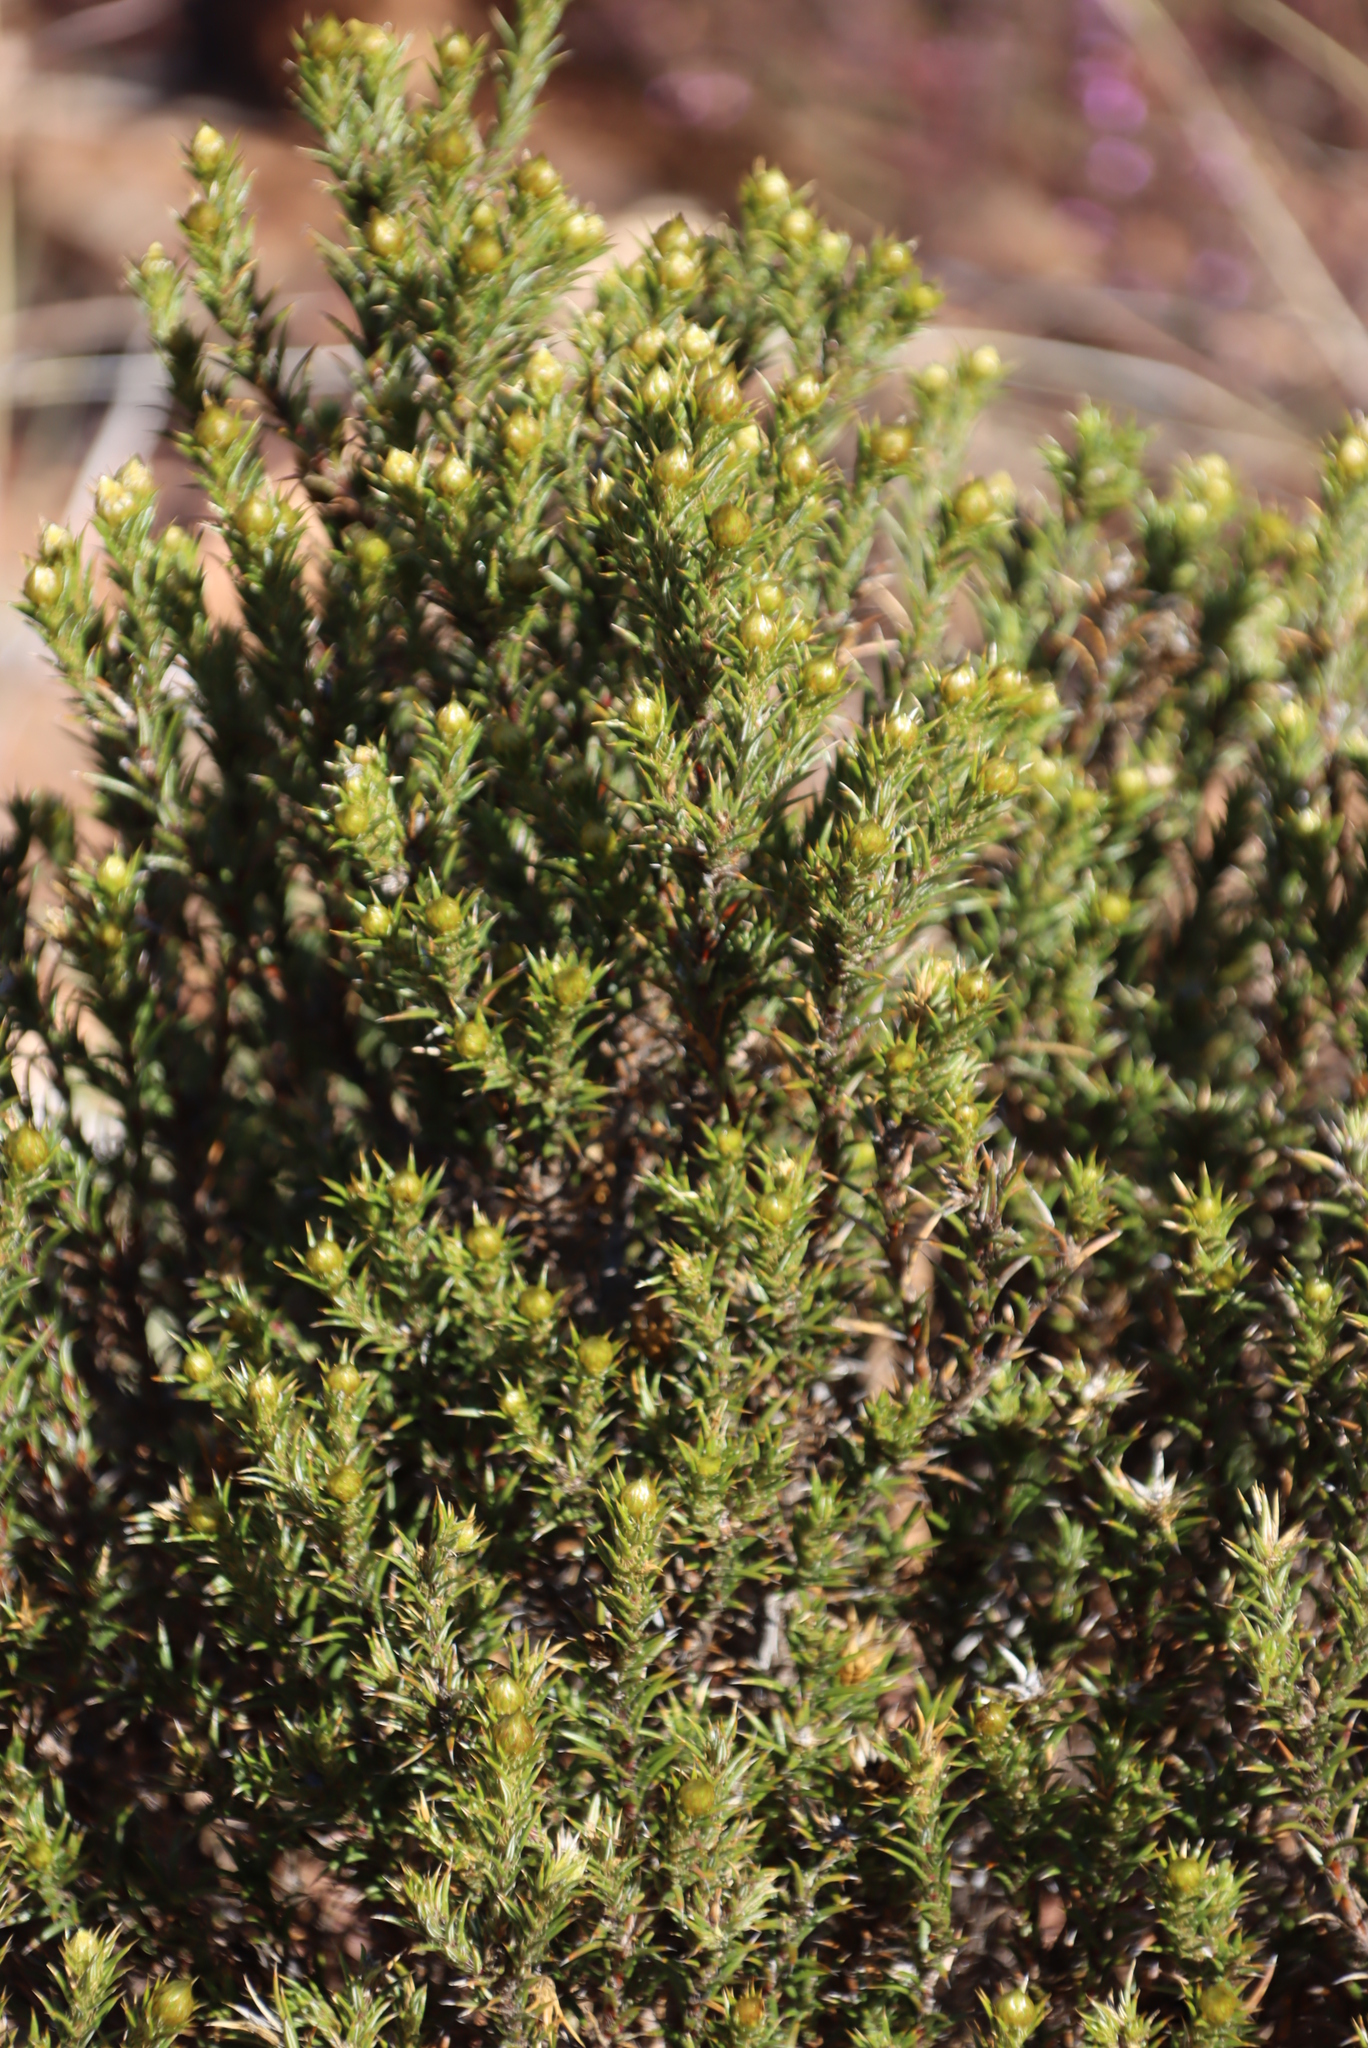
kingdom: Plantae
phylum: Tracheophyta
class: Magnoliopsida
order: Asterales
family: Asteraceae
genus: Oedera
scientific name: Oedera pungens
